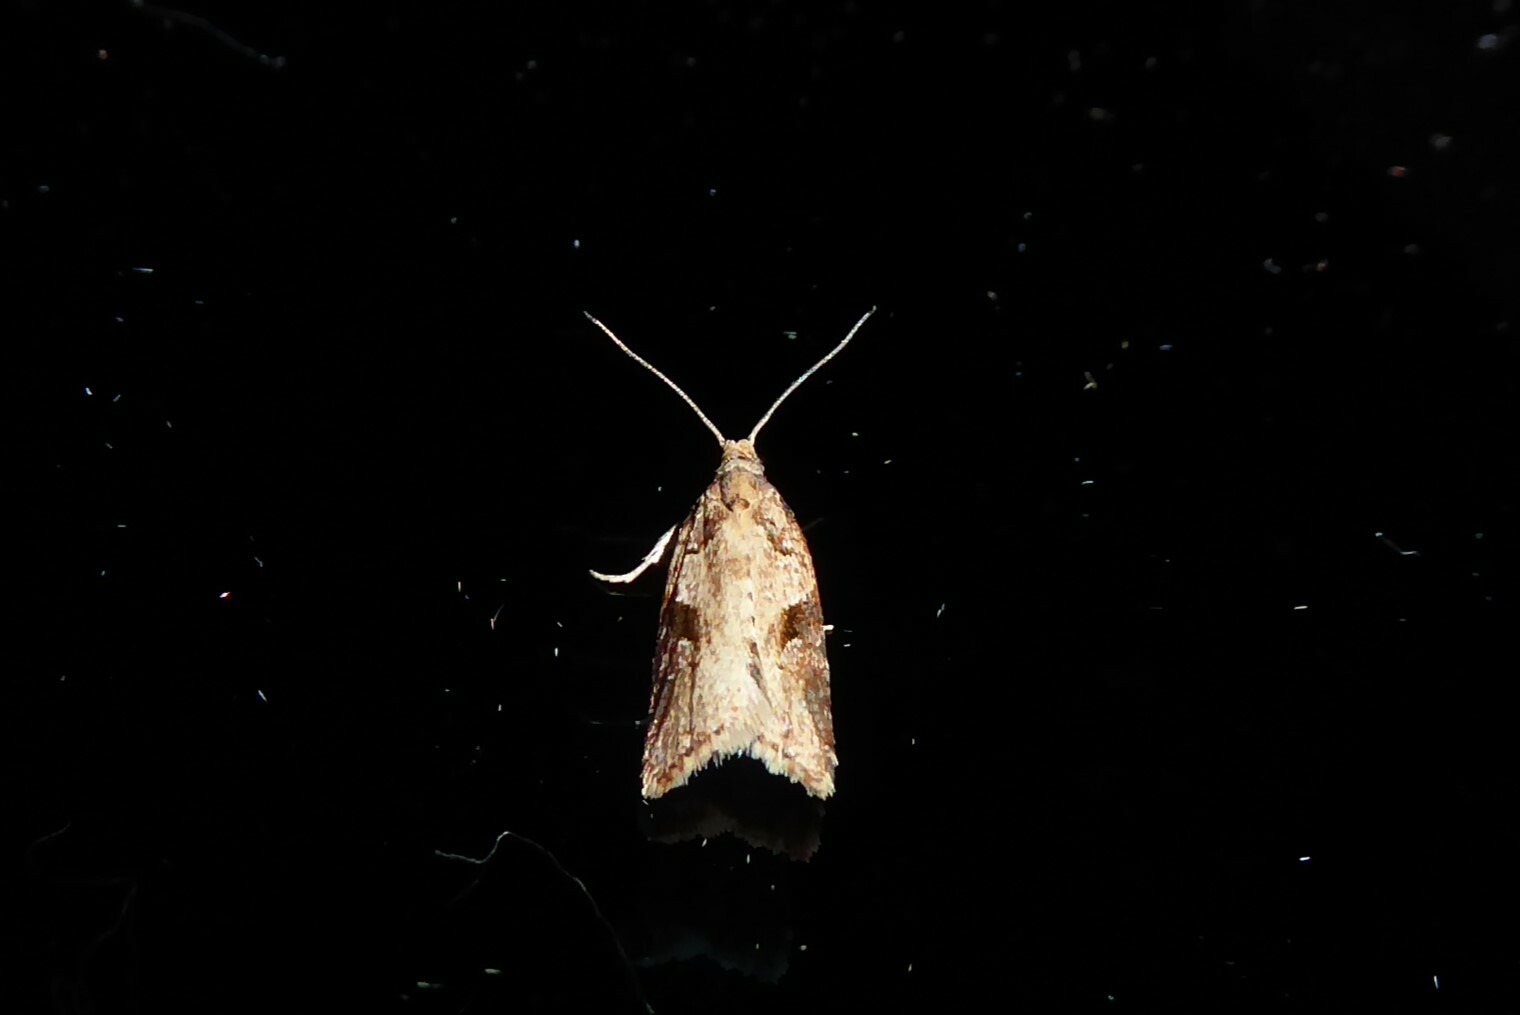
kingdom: Animalia
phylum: Arthropoda
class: Insecta
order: Lepidoptera
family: Tortricidae
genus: Capua
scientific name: Capua semiferana
